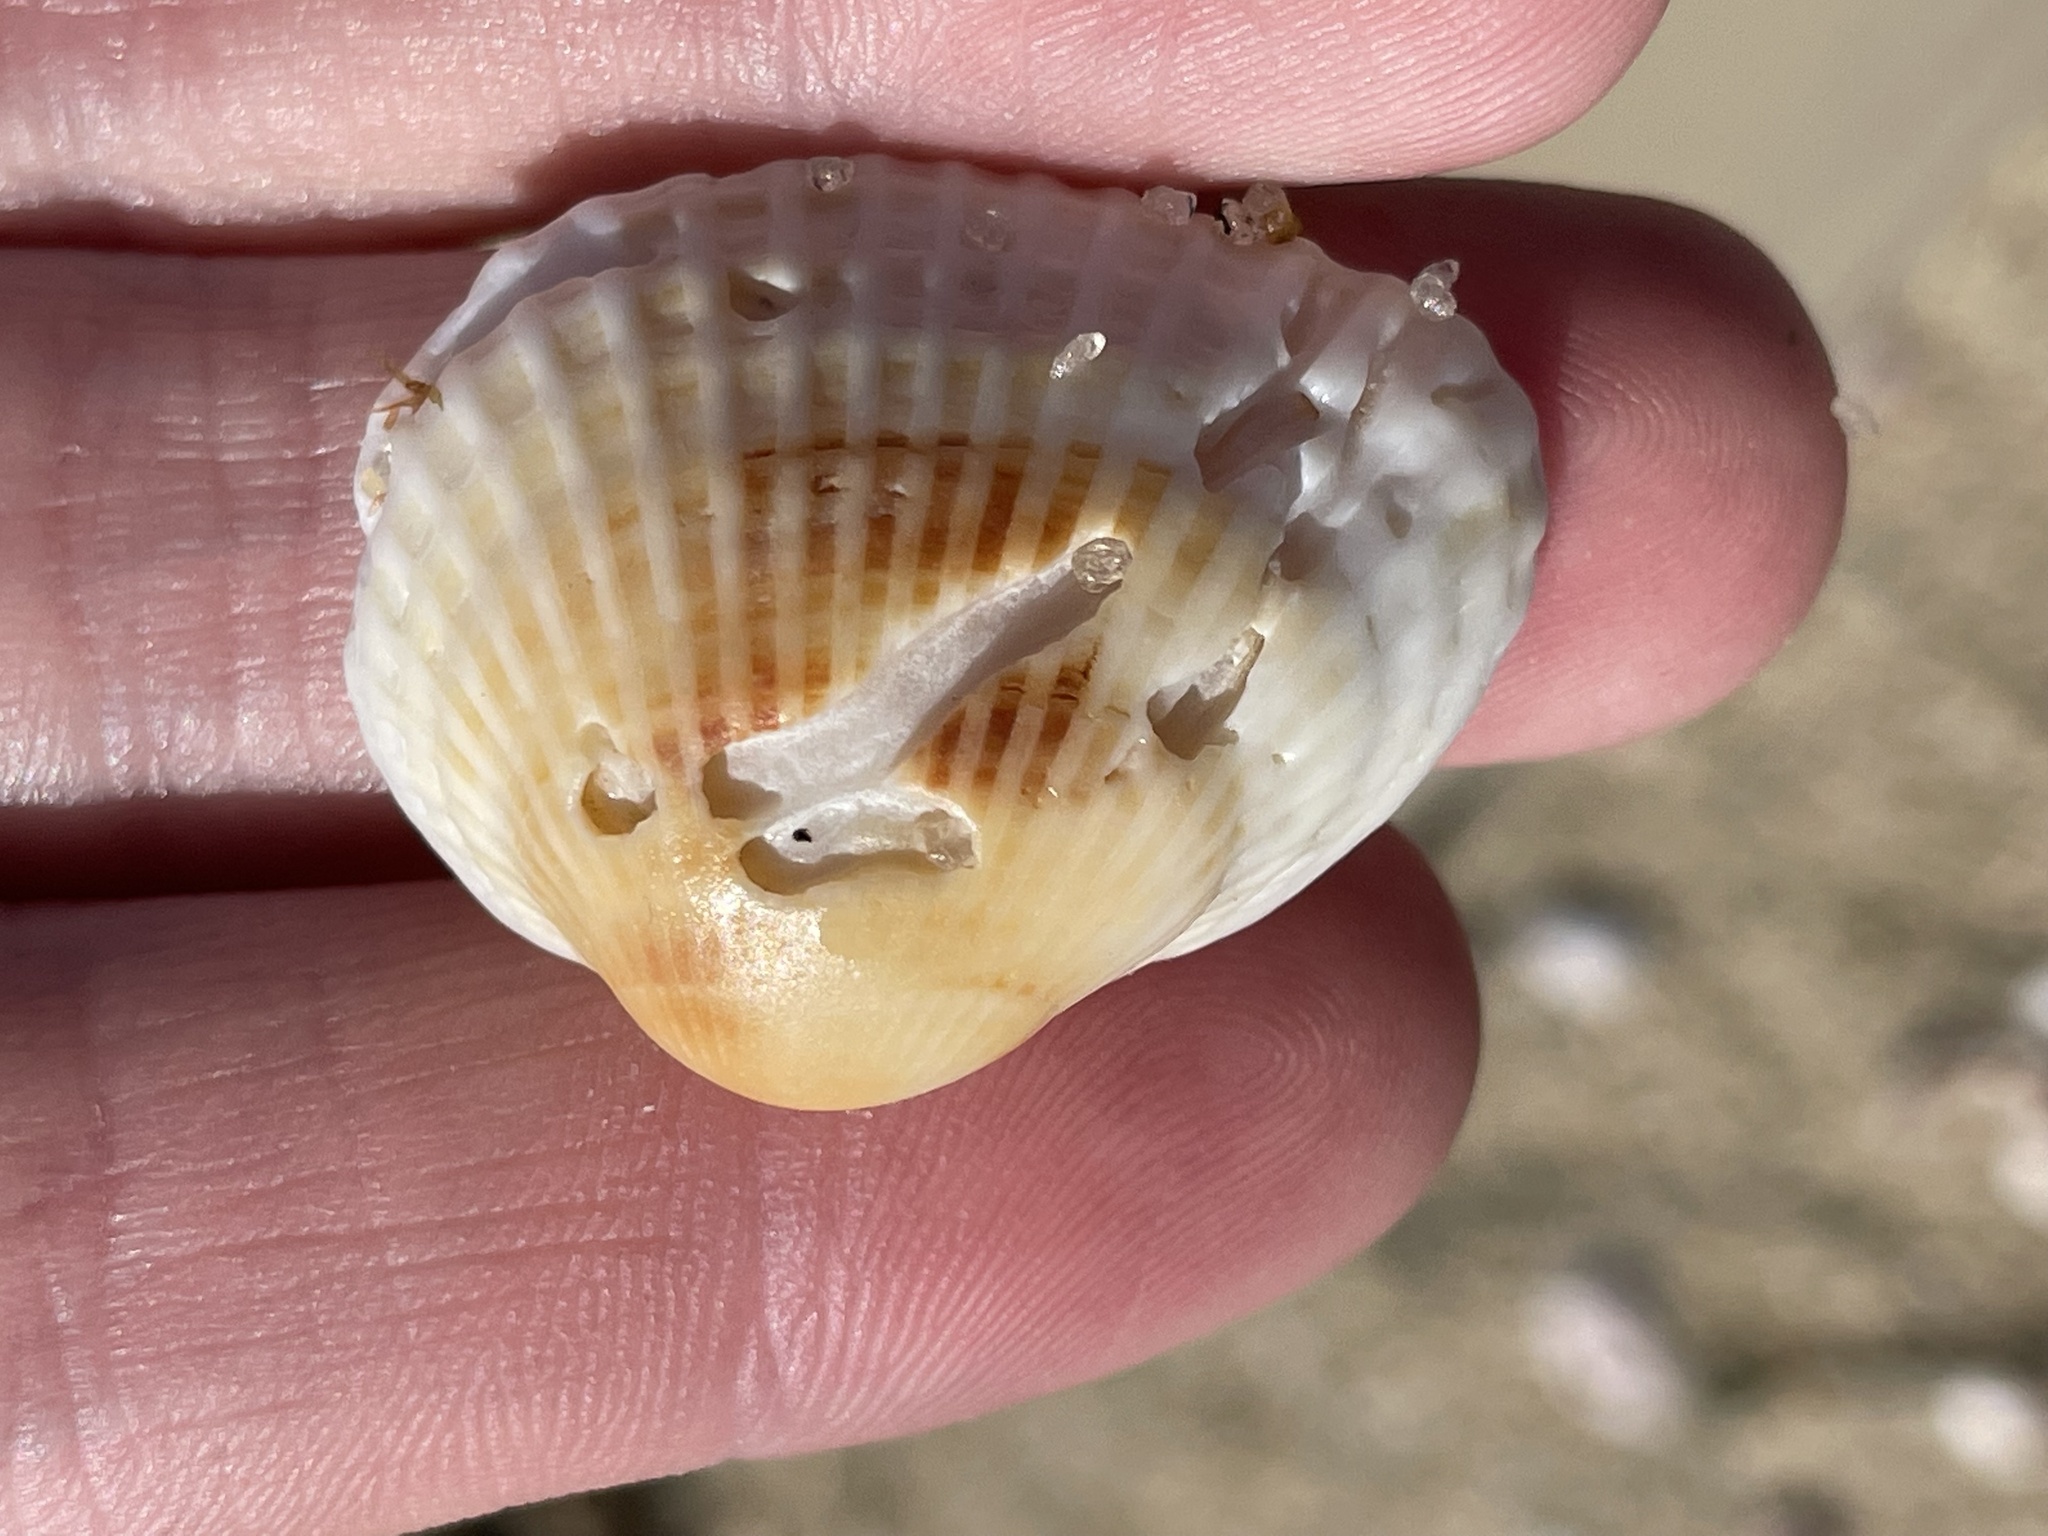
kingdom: Animalia
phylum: Mollusca
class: Bivalvia
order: Arcida
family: Arcidae
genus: Anadara
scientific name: Anadara transversa
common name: Transverse ark
